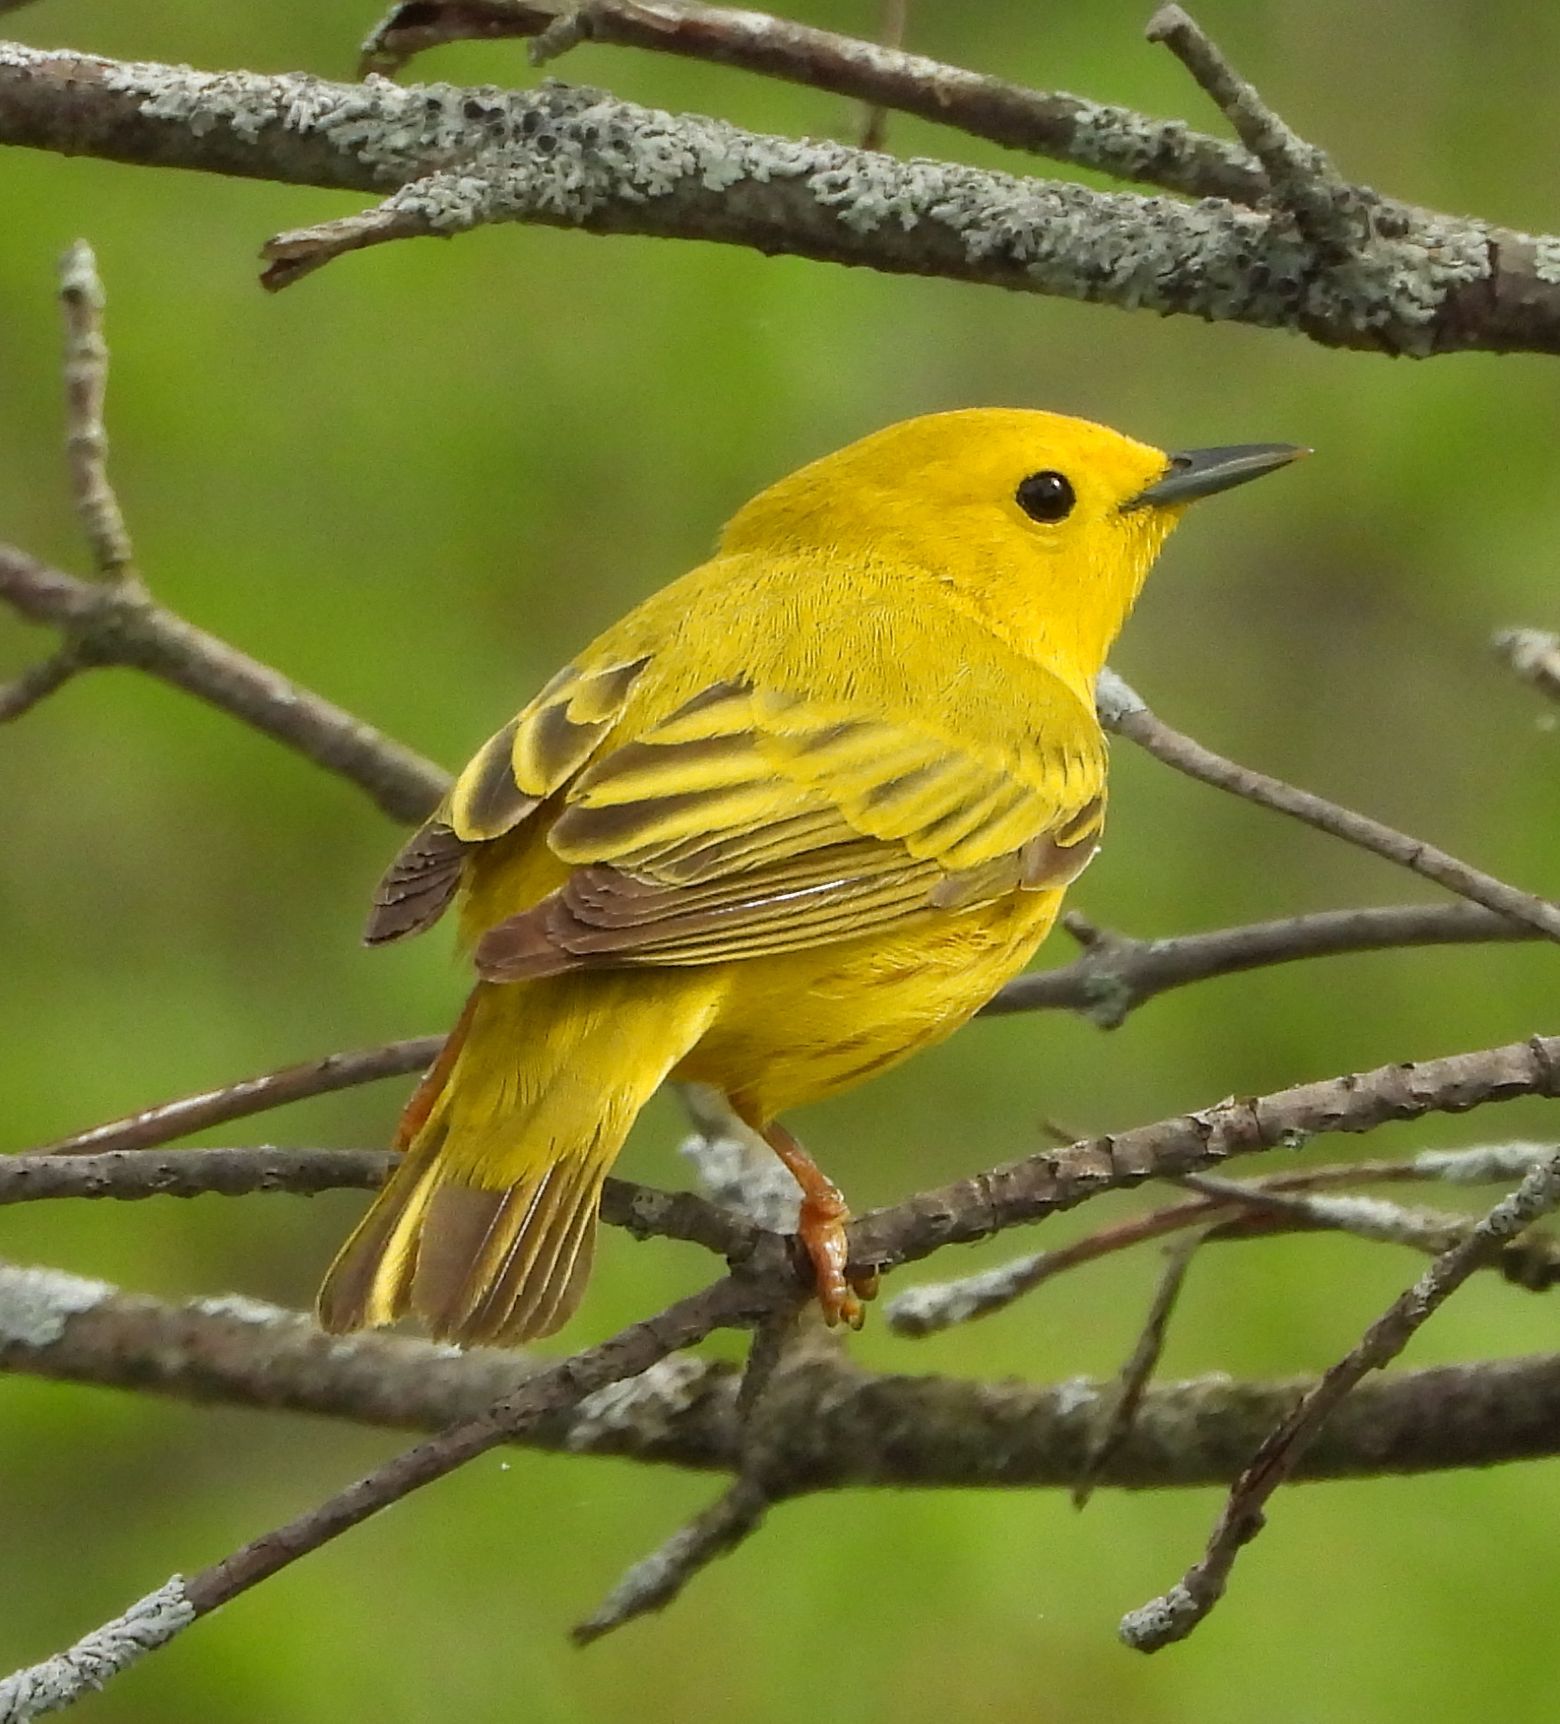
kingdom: Animalia
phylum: Chordata
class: Aves
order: Passeriformes
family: Parulidae
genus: Setophaga
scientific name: Setophaga petechia
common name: Yellow warbler
